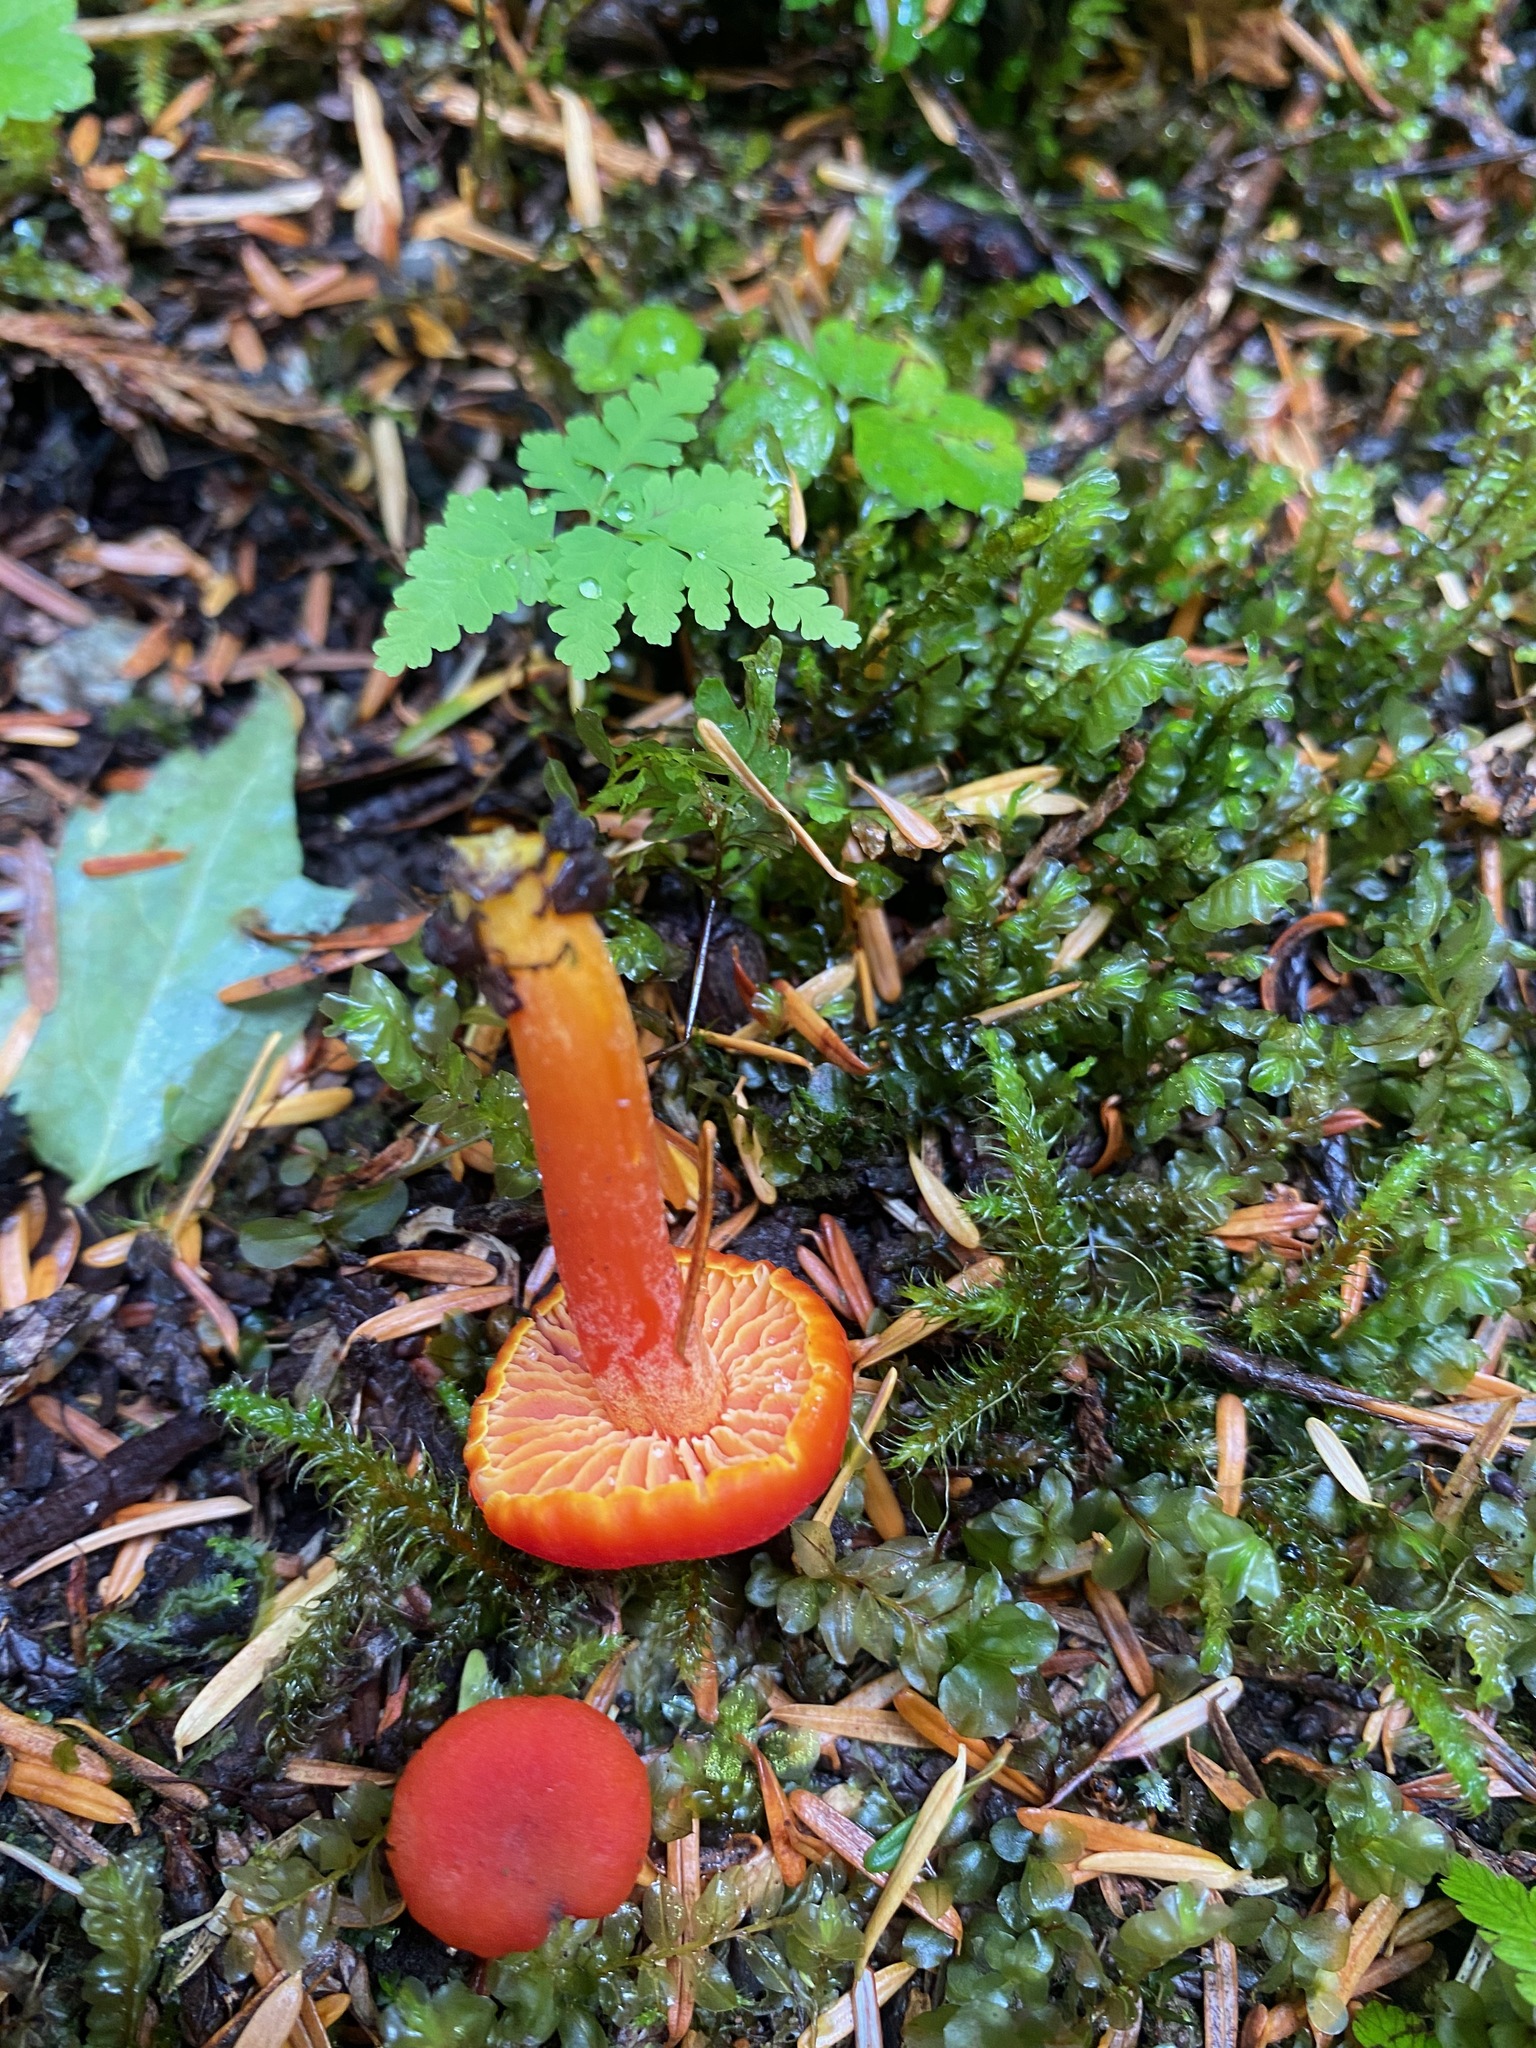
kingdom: Fungi
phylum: Basidiomycota
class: Agaricomycetes
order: Agaricales
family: Hygrophoraceae
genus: Hygrocybe
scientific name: Hygrocybe miniata
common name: Vermilion waxcap
